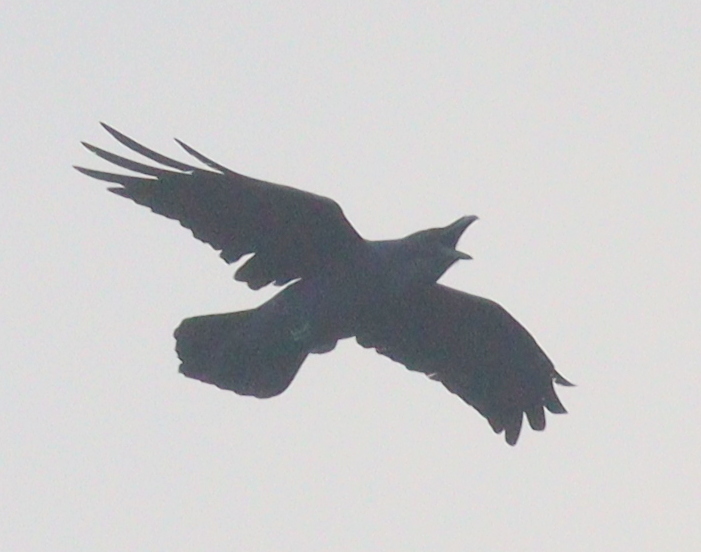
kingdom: Animalia
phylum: Chordata
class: Aves
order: Passeriformes
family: Corvidae
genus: Corvus
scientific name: Corvus corax
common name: Common raven
